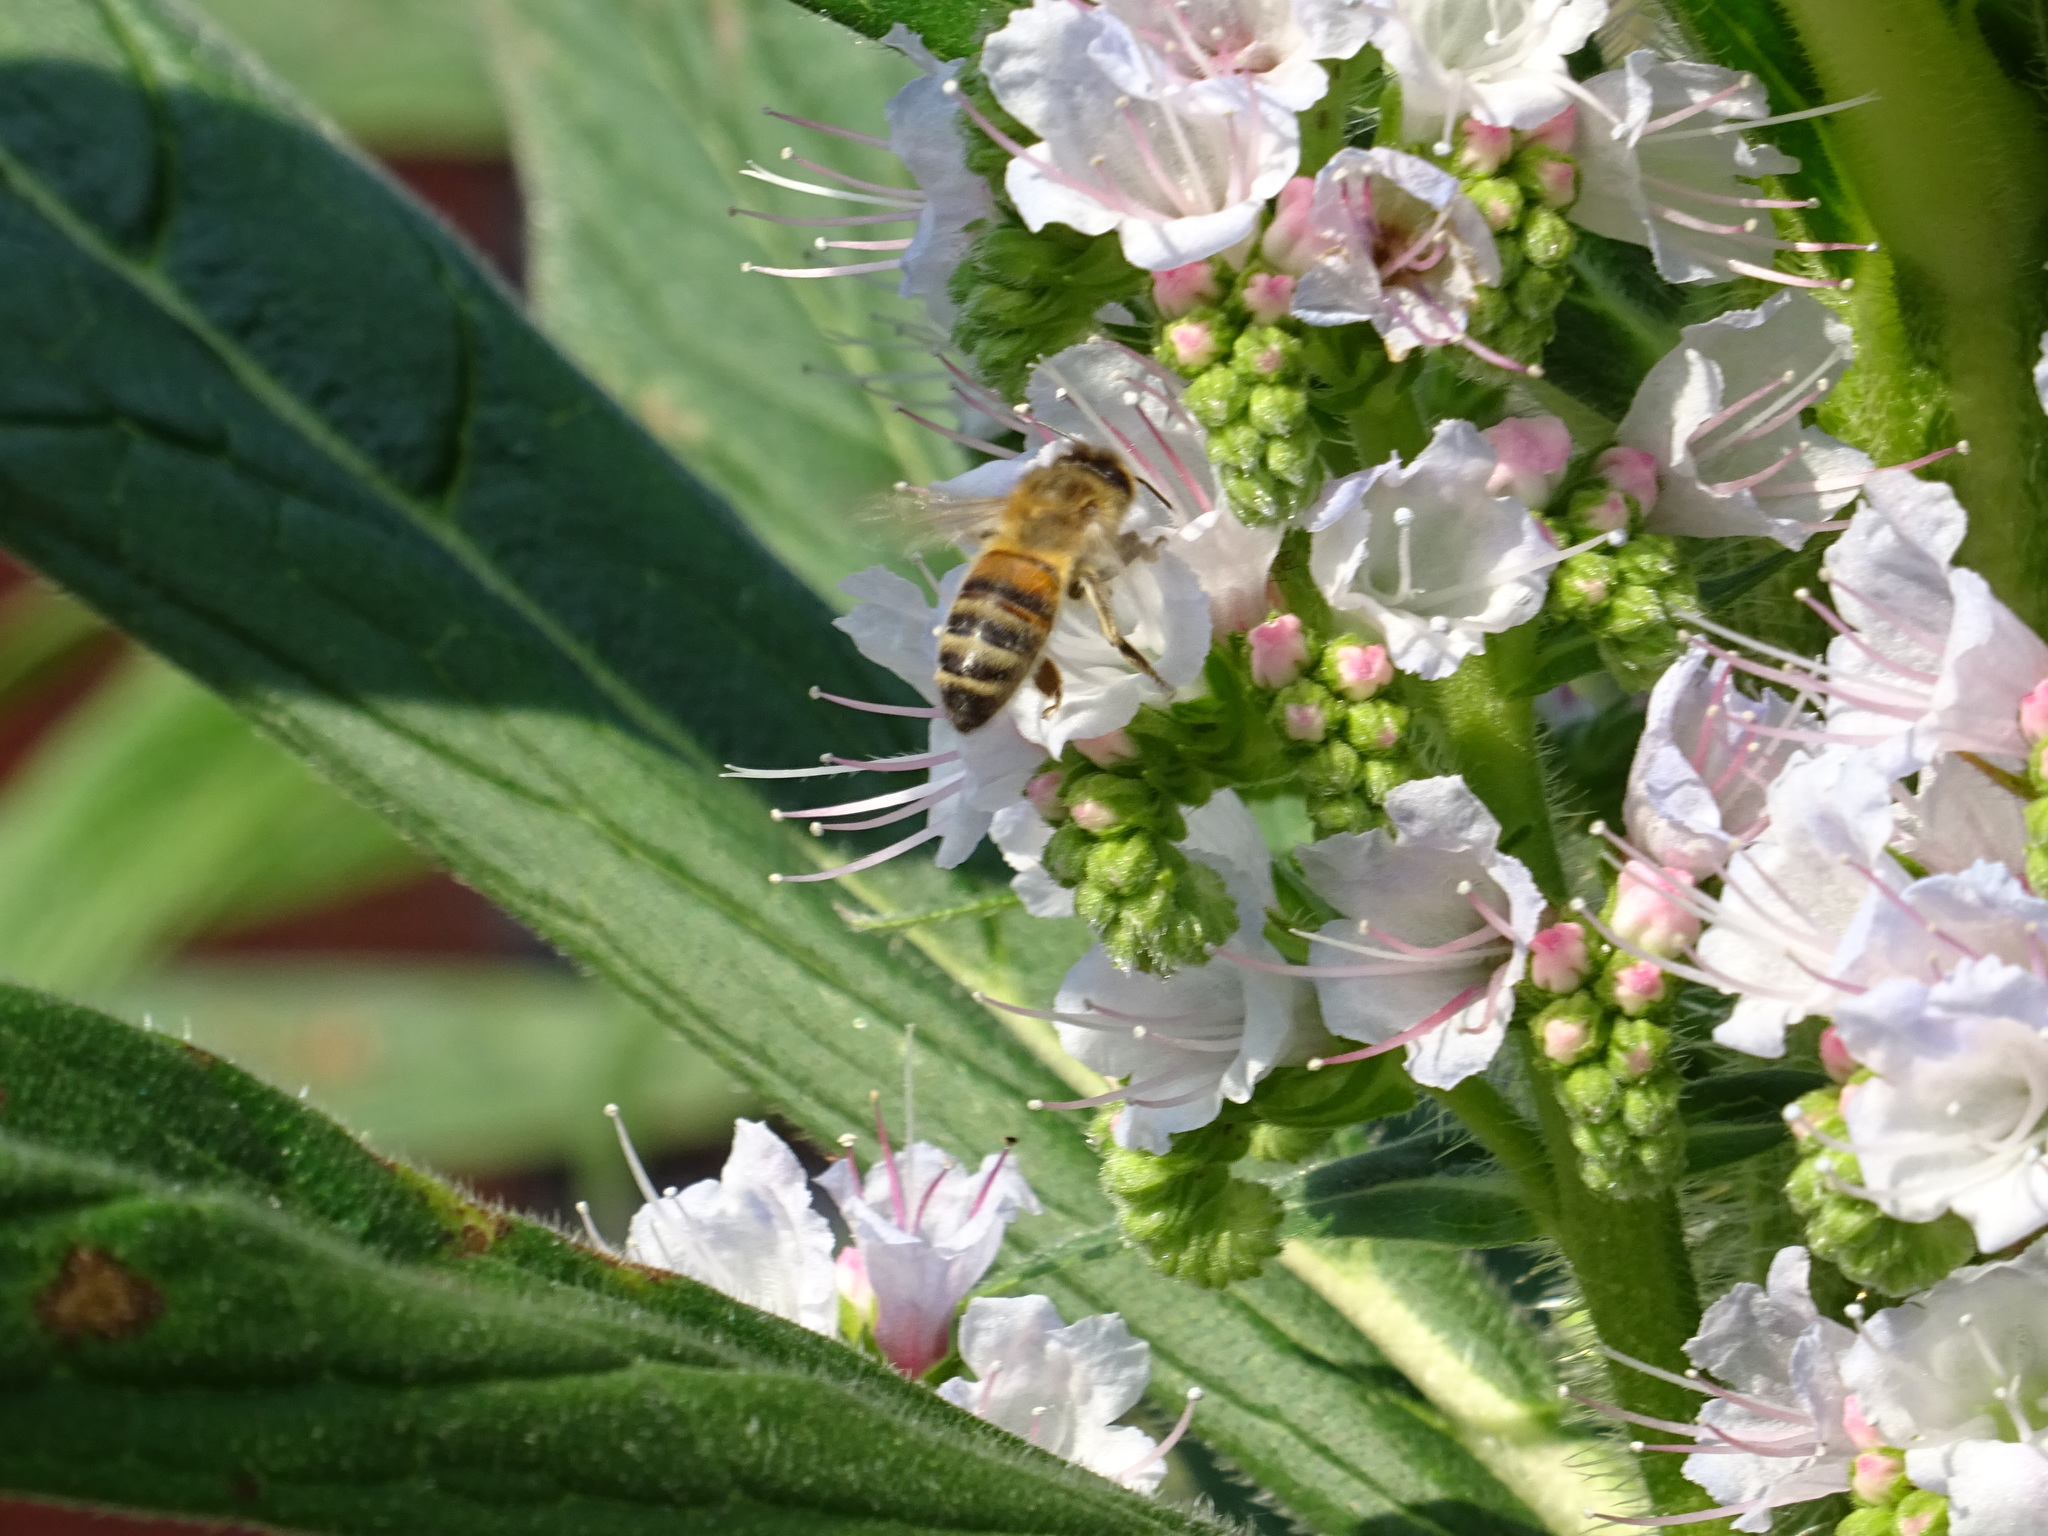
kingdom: Animalia
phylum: Arthropoda
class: Insecta
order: Hymenoptera
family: Apidae
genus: Apis
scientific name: Apis mellifera
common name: Honey bee
